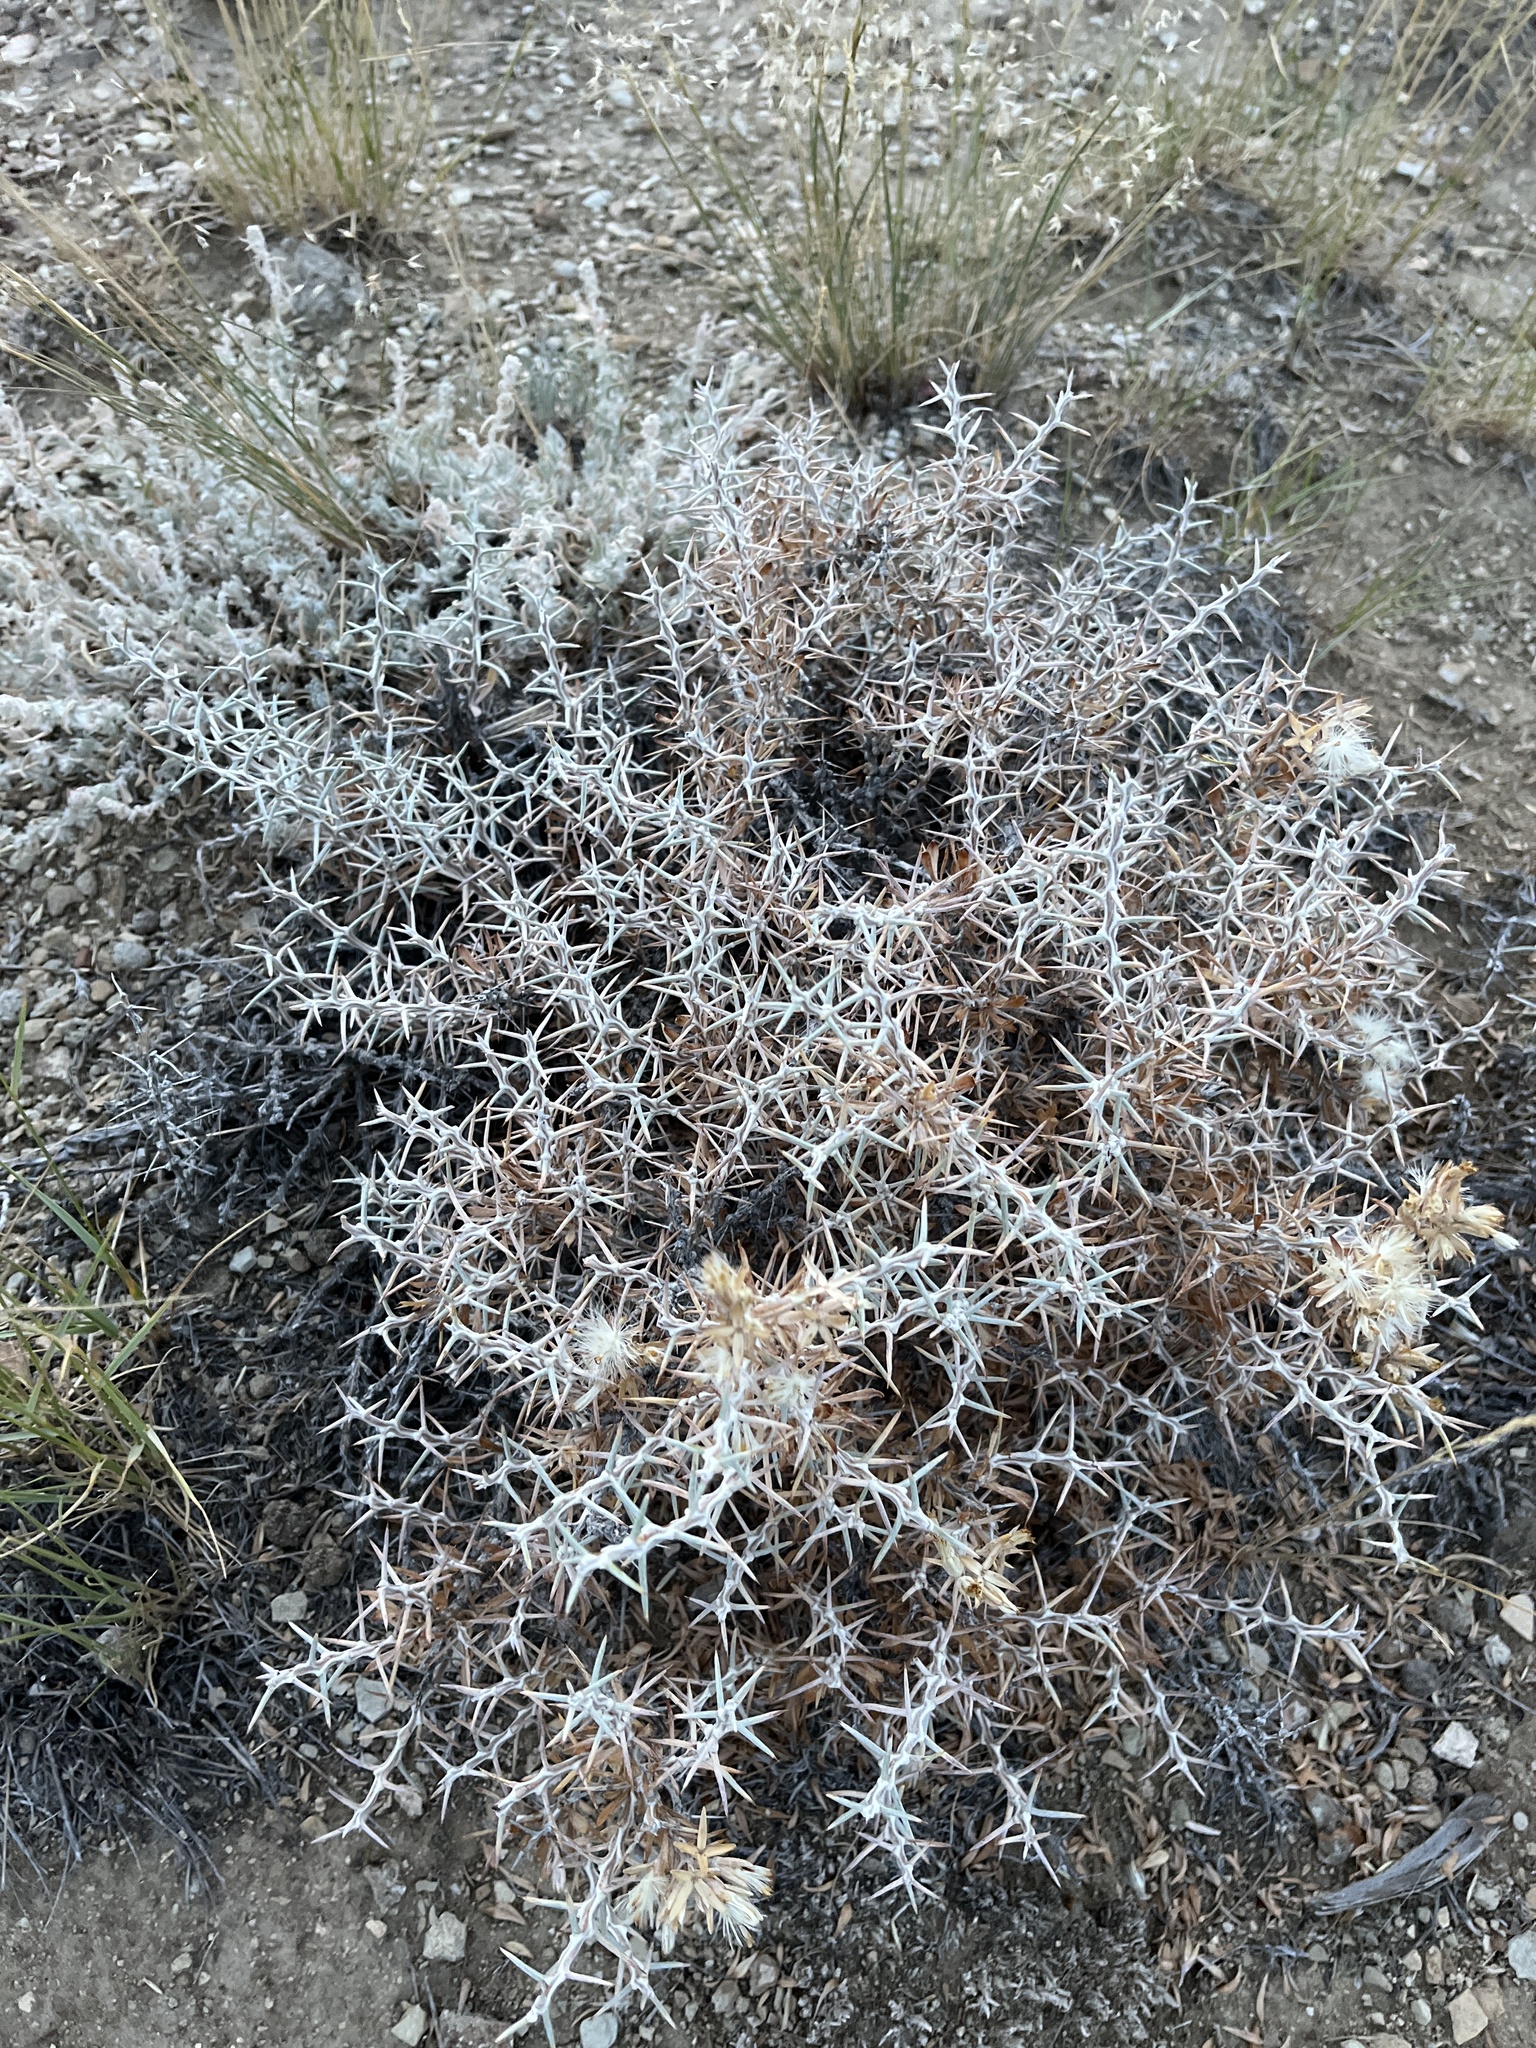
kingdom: Plantae
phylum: Tracheophyta
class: Magnoliopsida
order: Asterales
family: Asteraceae
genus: Tetradymia
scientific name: Tetradymia nuttallii
